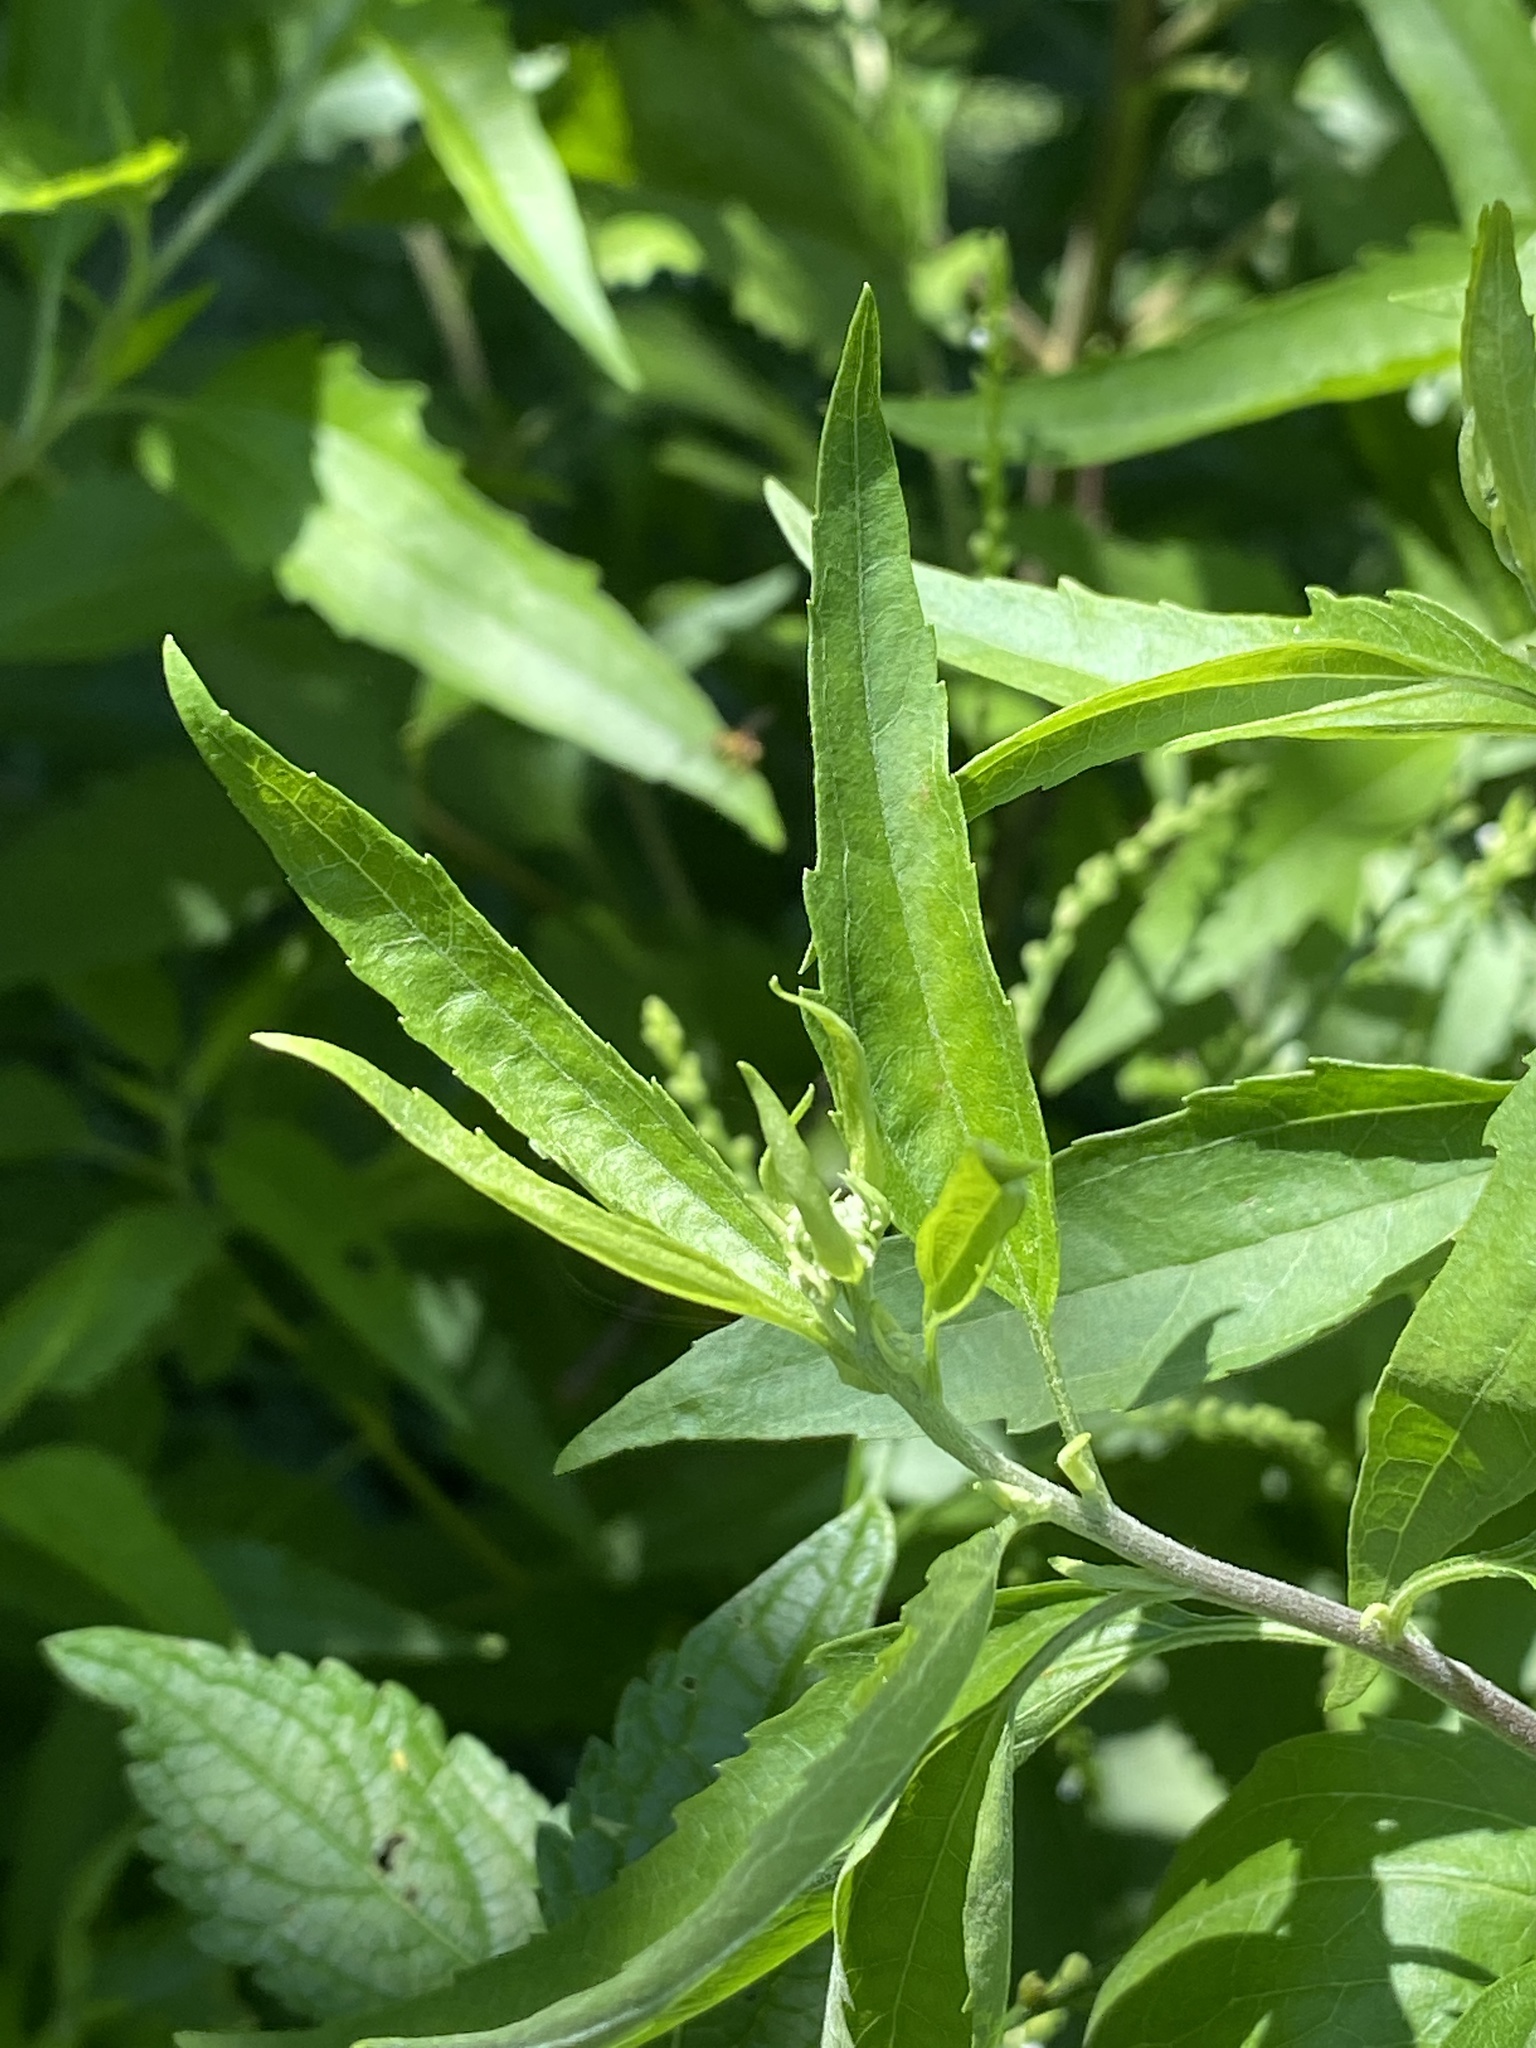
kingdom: Plantae
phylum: Tracheophyta
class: Magnoliopsida
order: Asterales
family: Asteraceae
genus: Eupatorium
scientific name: Eupatorium serotinum
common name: Late boneset
